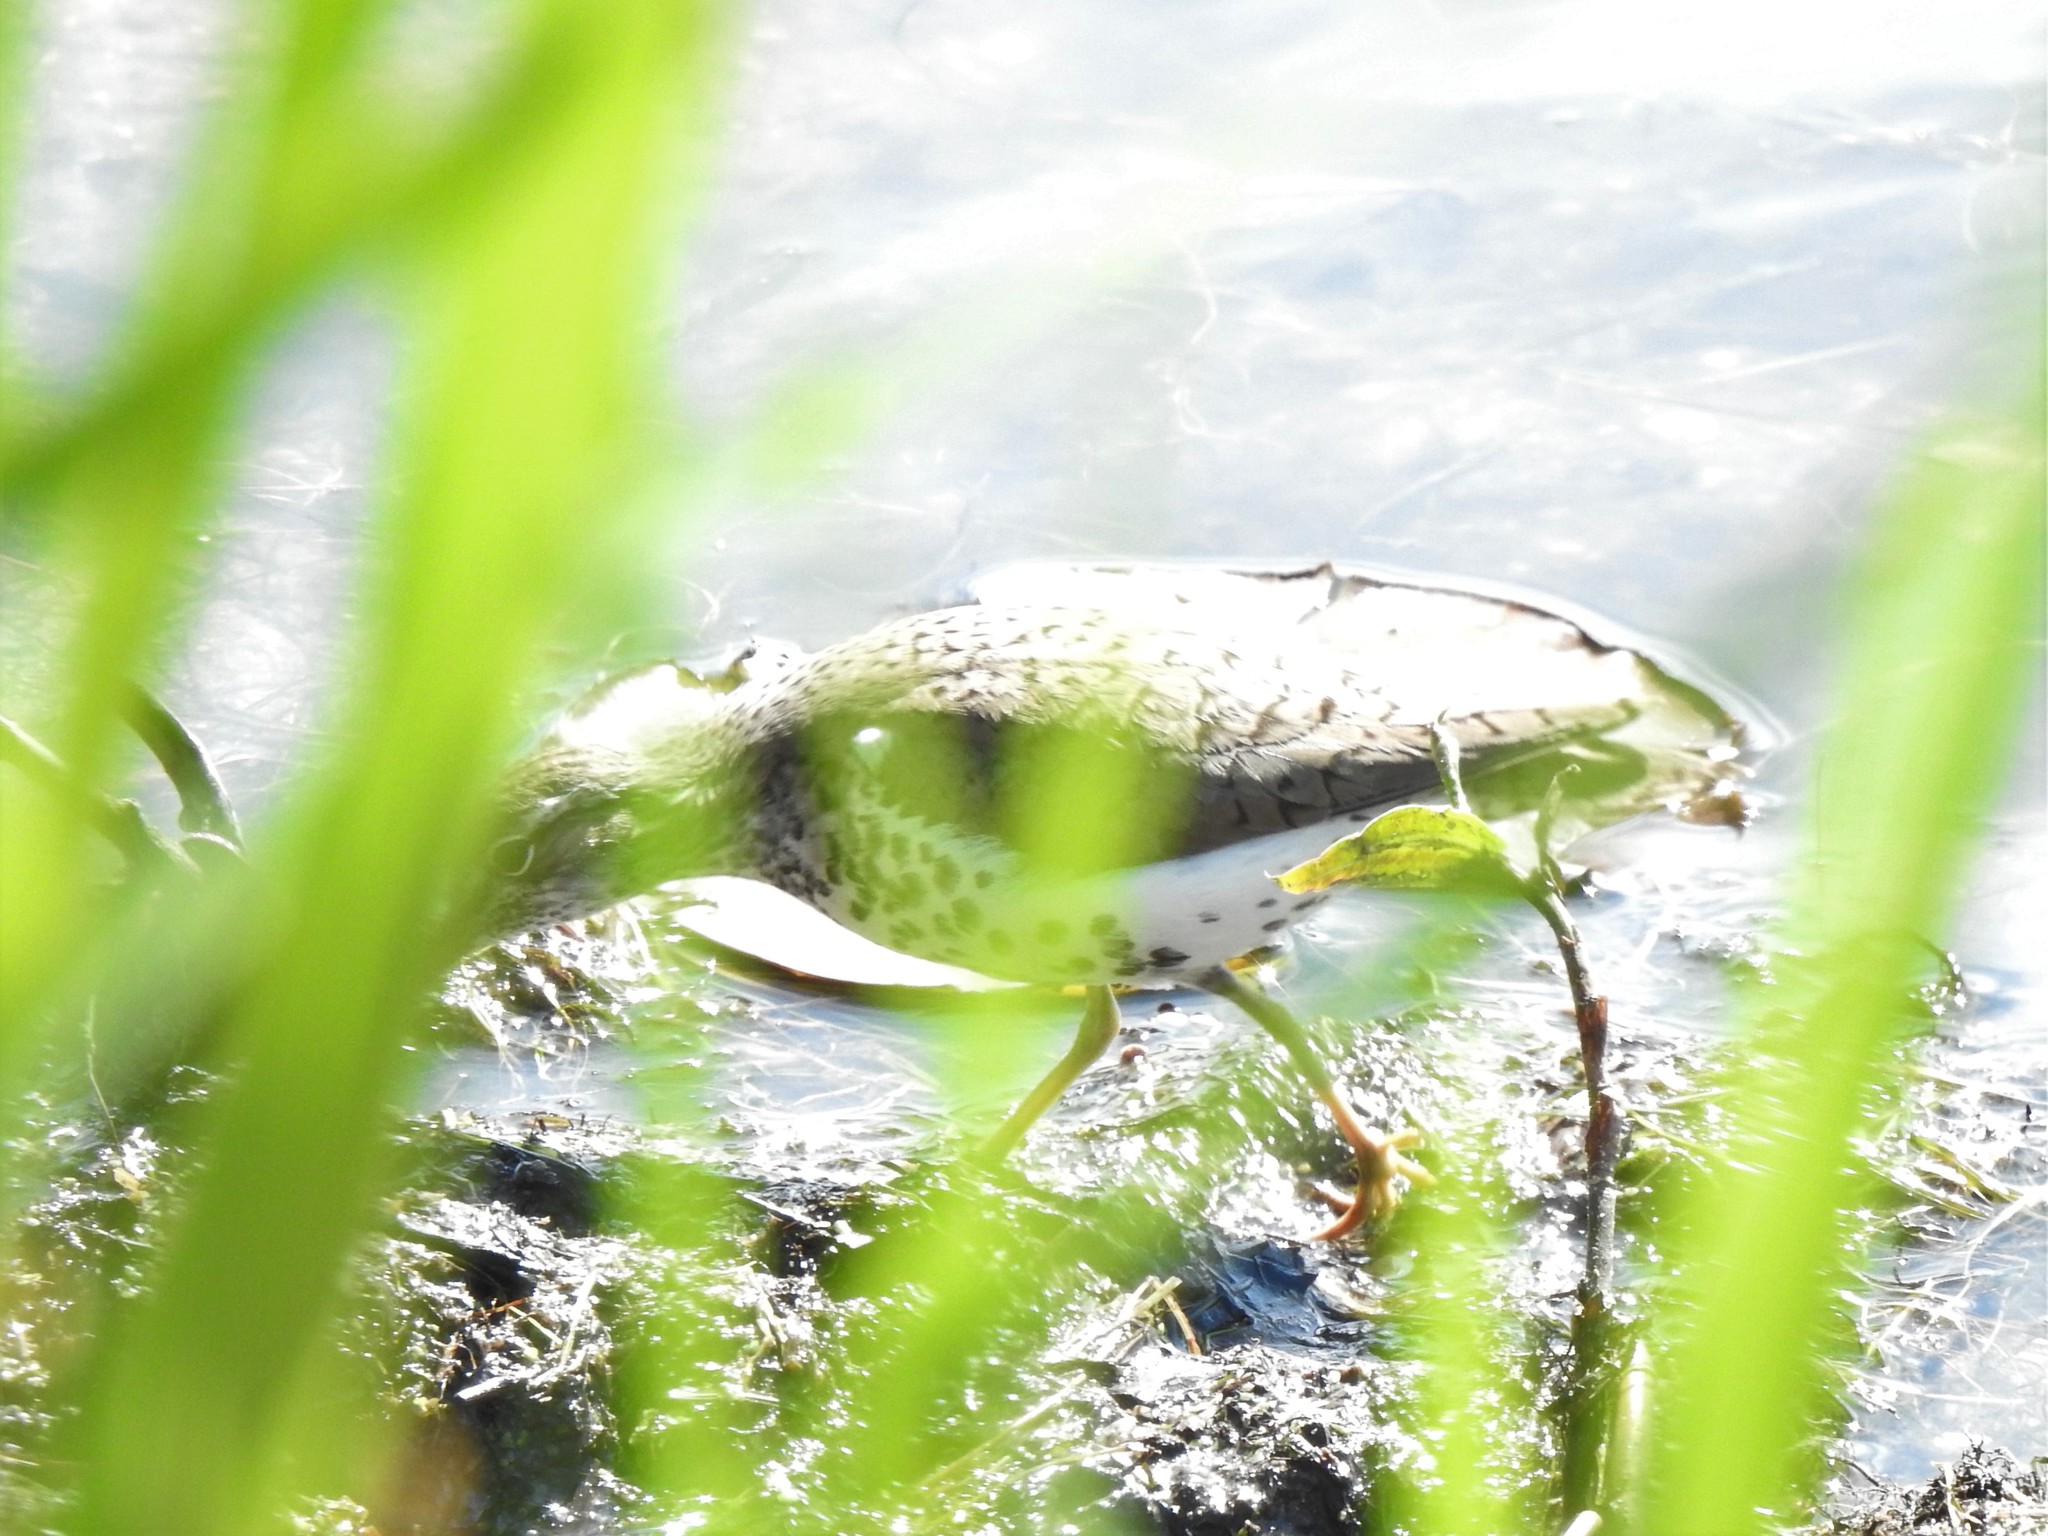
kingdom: Animalia
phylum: Chordata
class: Aves
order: Charadriiformes
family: Scolopacidae
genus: Actitis
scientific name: Actitis macularius
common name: Spotted sandpiper
